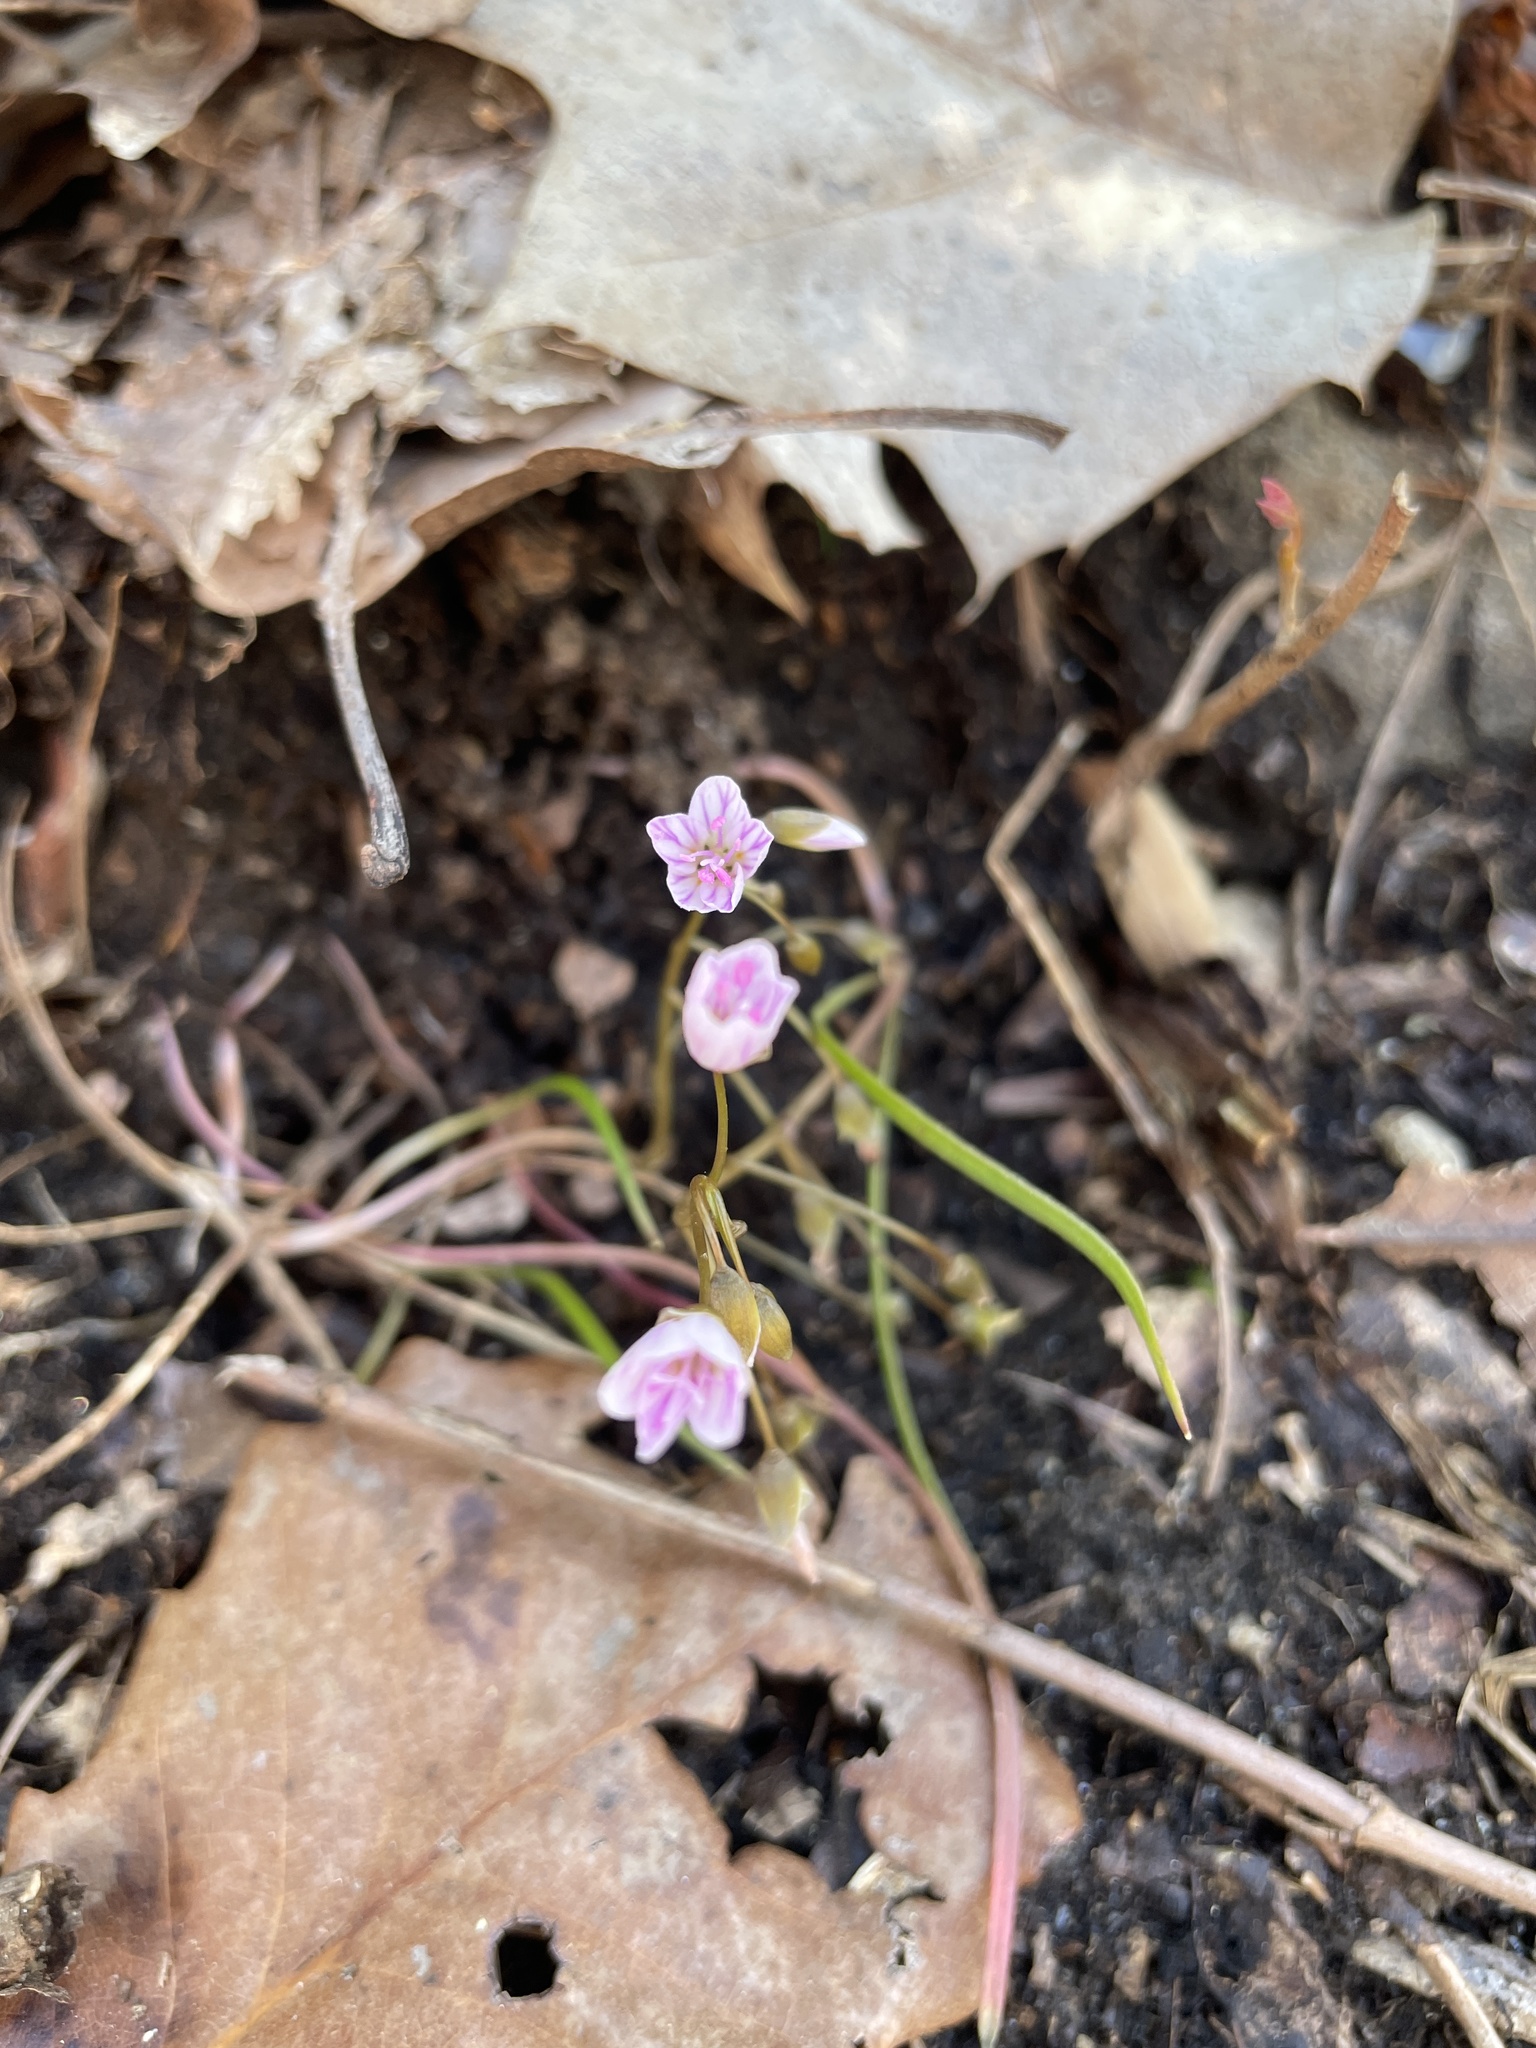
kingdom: Plantae
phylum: Tracheophyta
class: Magnoliopsida
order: Caryophyllales
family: Montiaceae
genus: Claytonia
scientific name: Claytonia virginica
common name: Virginia springbeauty
